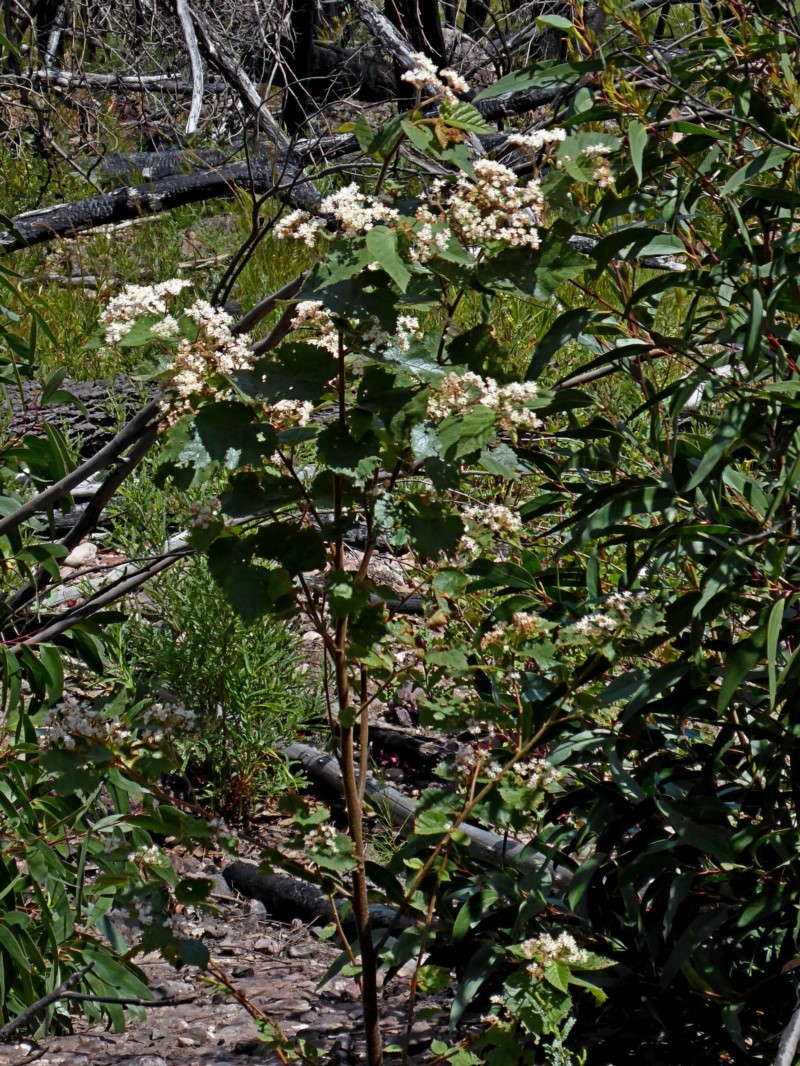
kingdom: Plantae
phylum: Tracheophyta
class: Magnoliopsida
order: Malvales
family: Malvaceae
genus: Androcalva
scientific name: Androcalva rossii
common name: Native hemp
